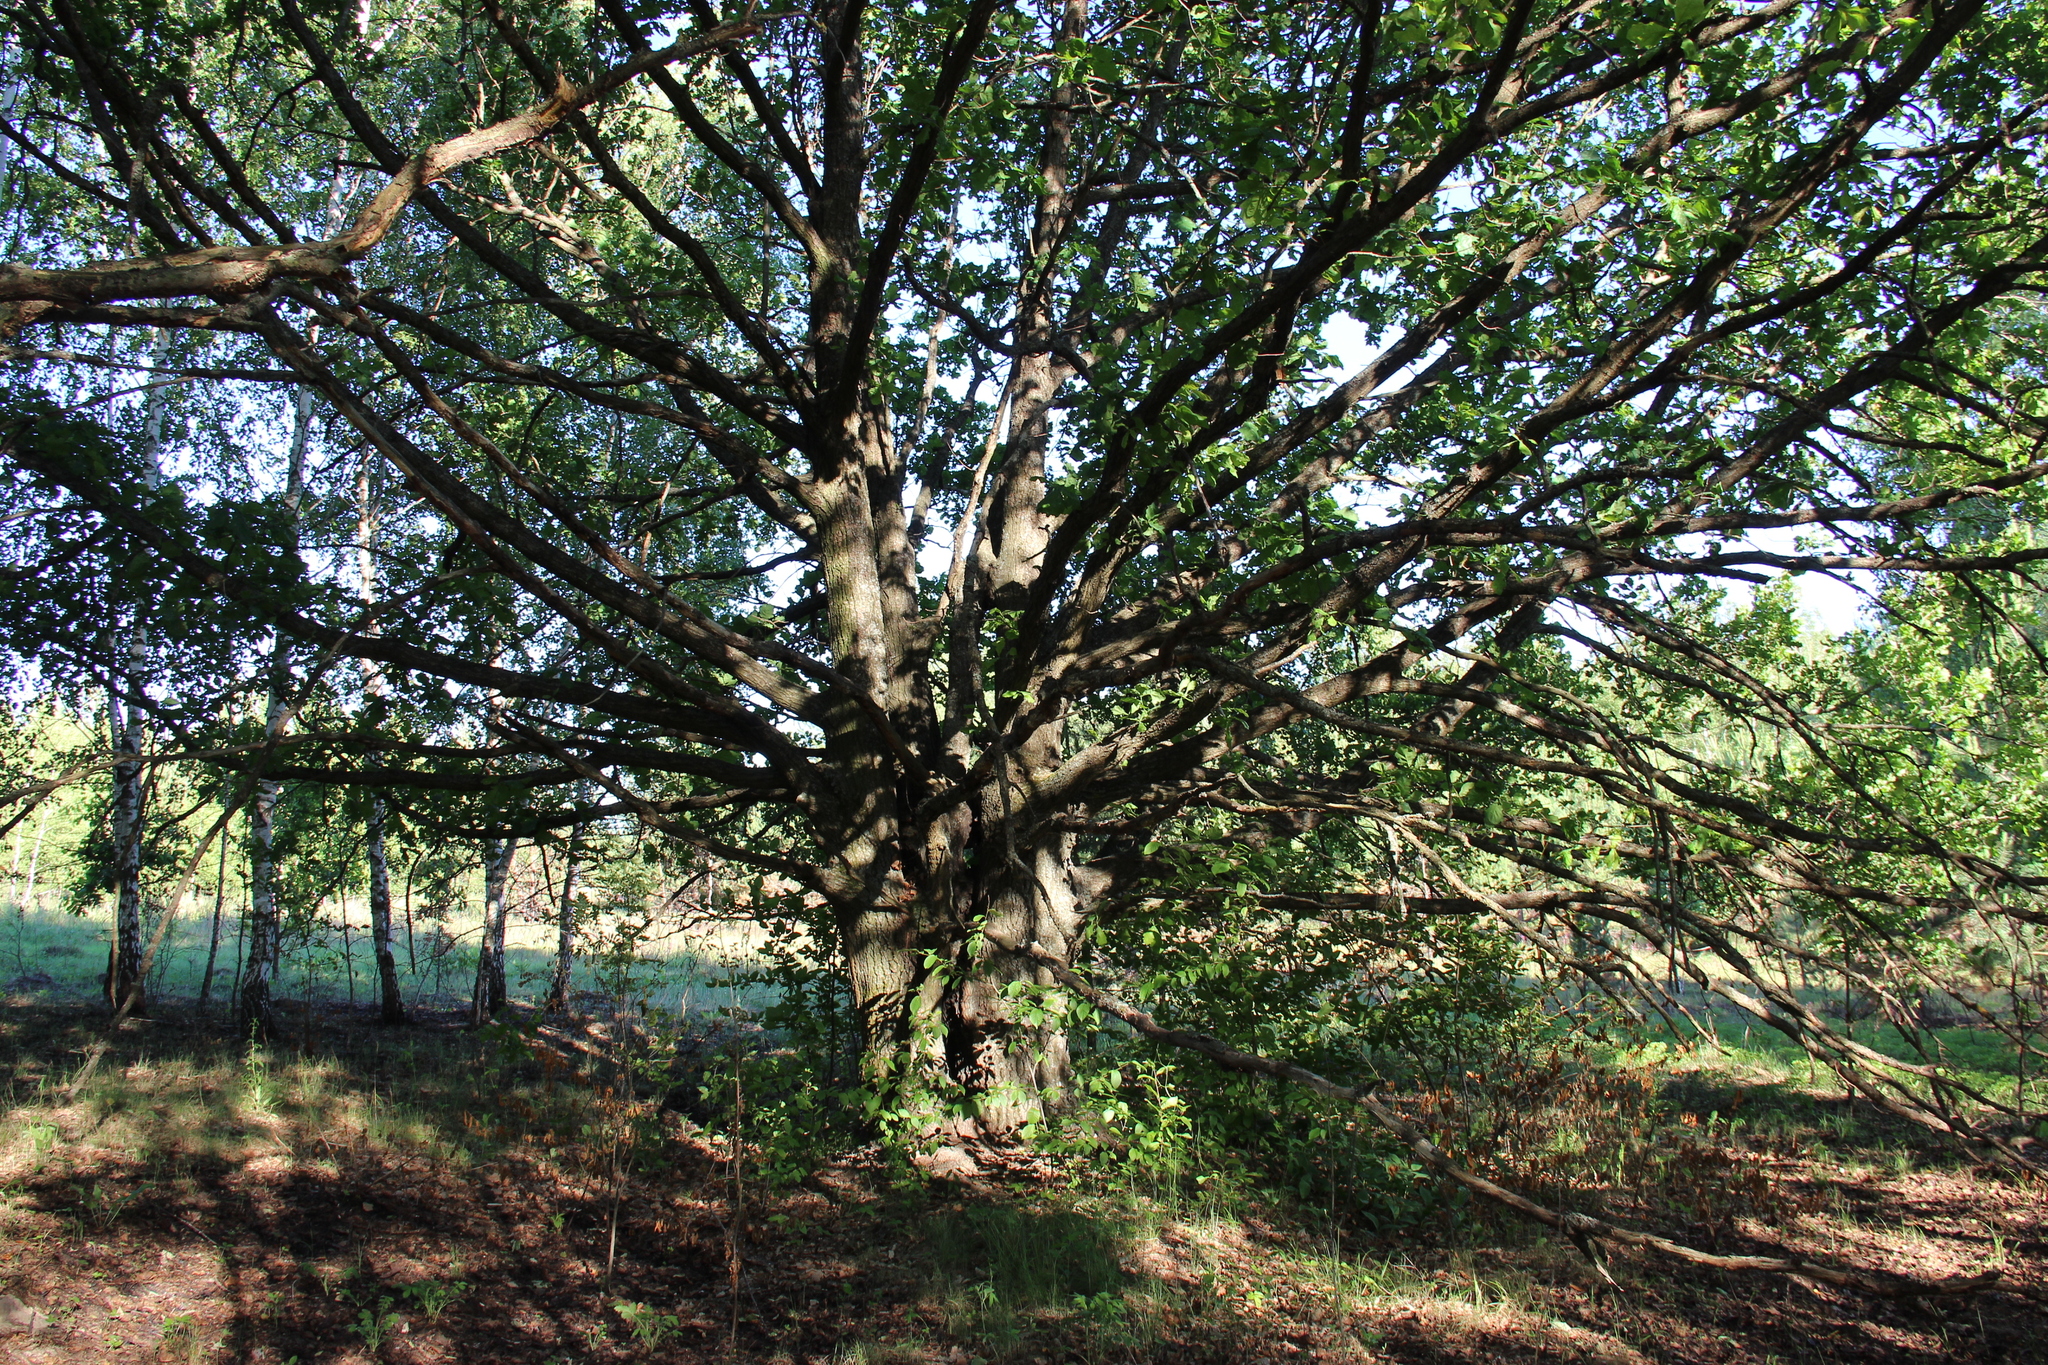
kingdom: Plantae
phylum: Tracheophyta
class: Magnoliopsida
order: Fagales
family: Fagaceae
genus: Quercus
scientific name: Quercus robur
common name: Pedunculate oak
